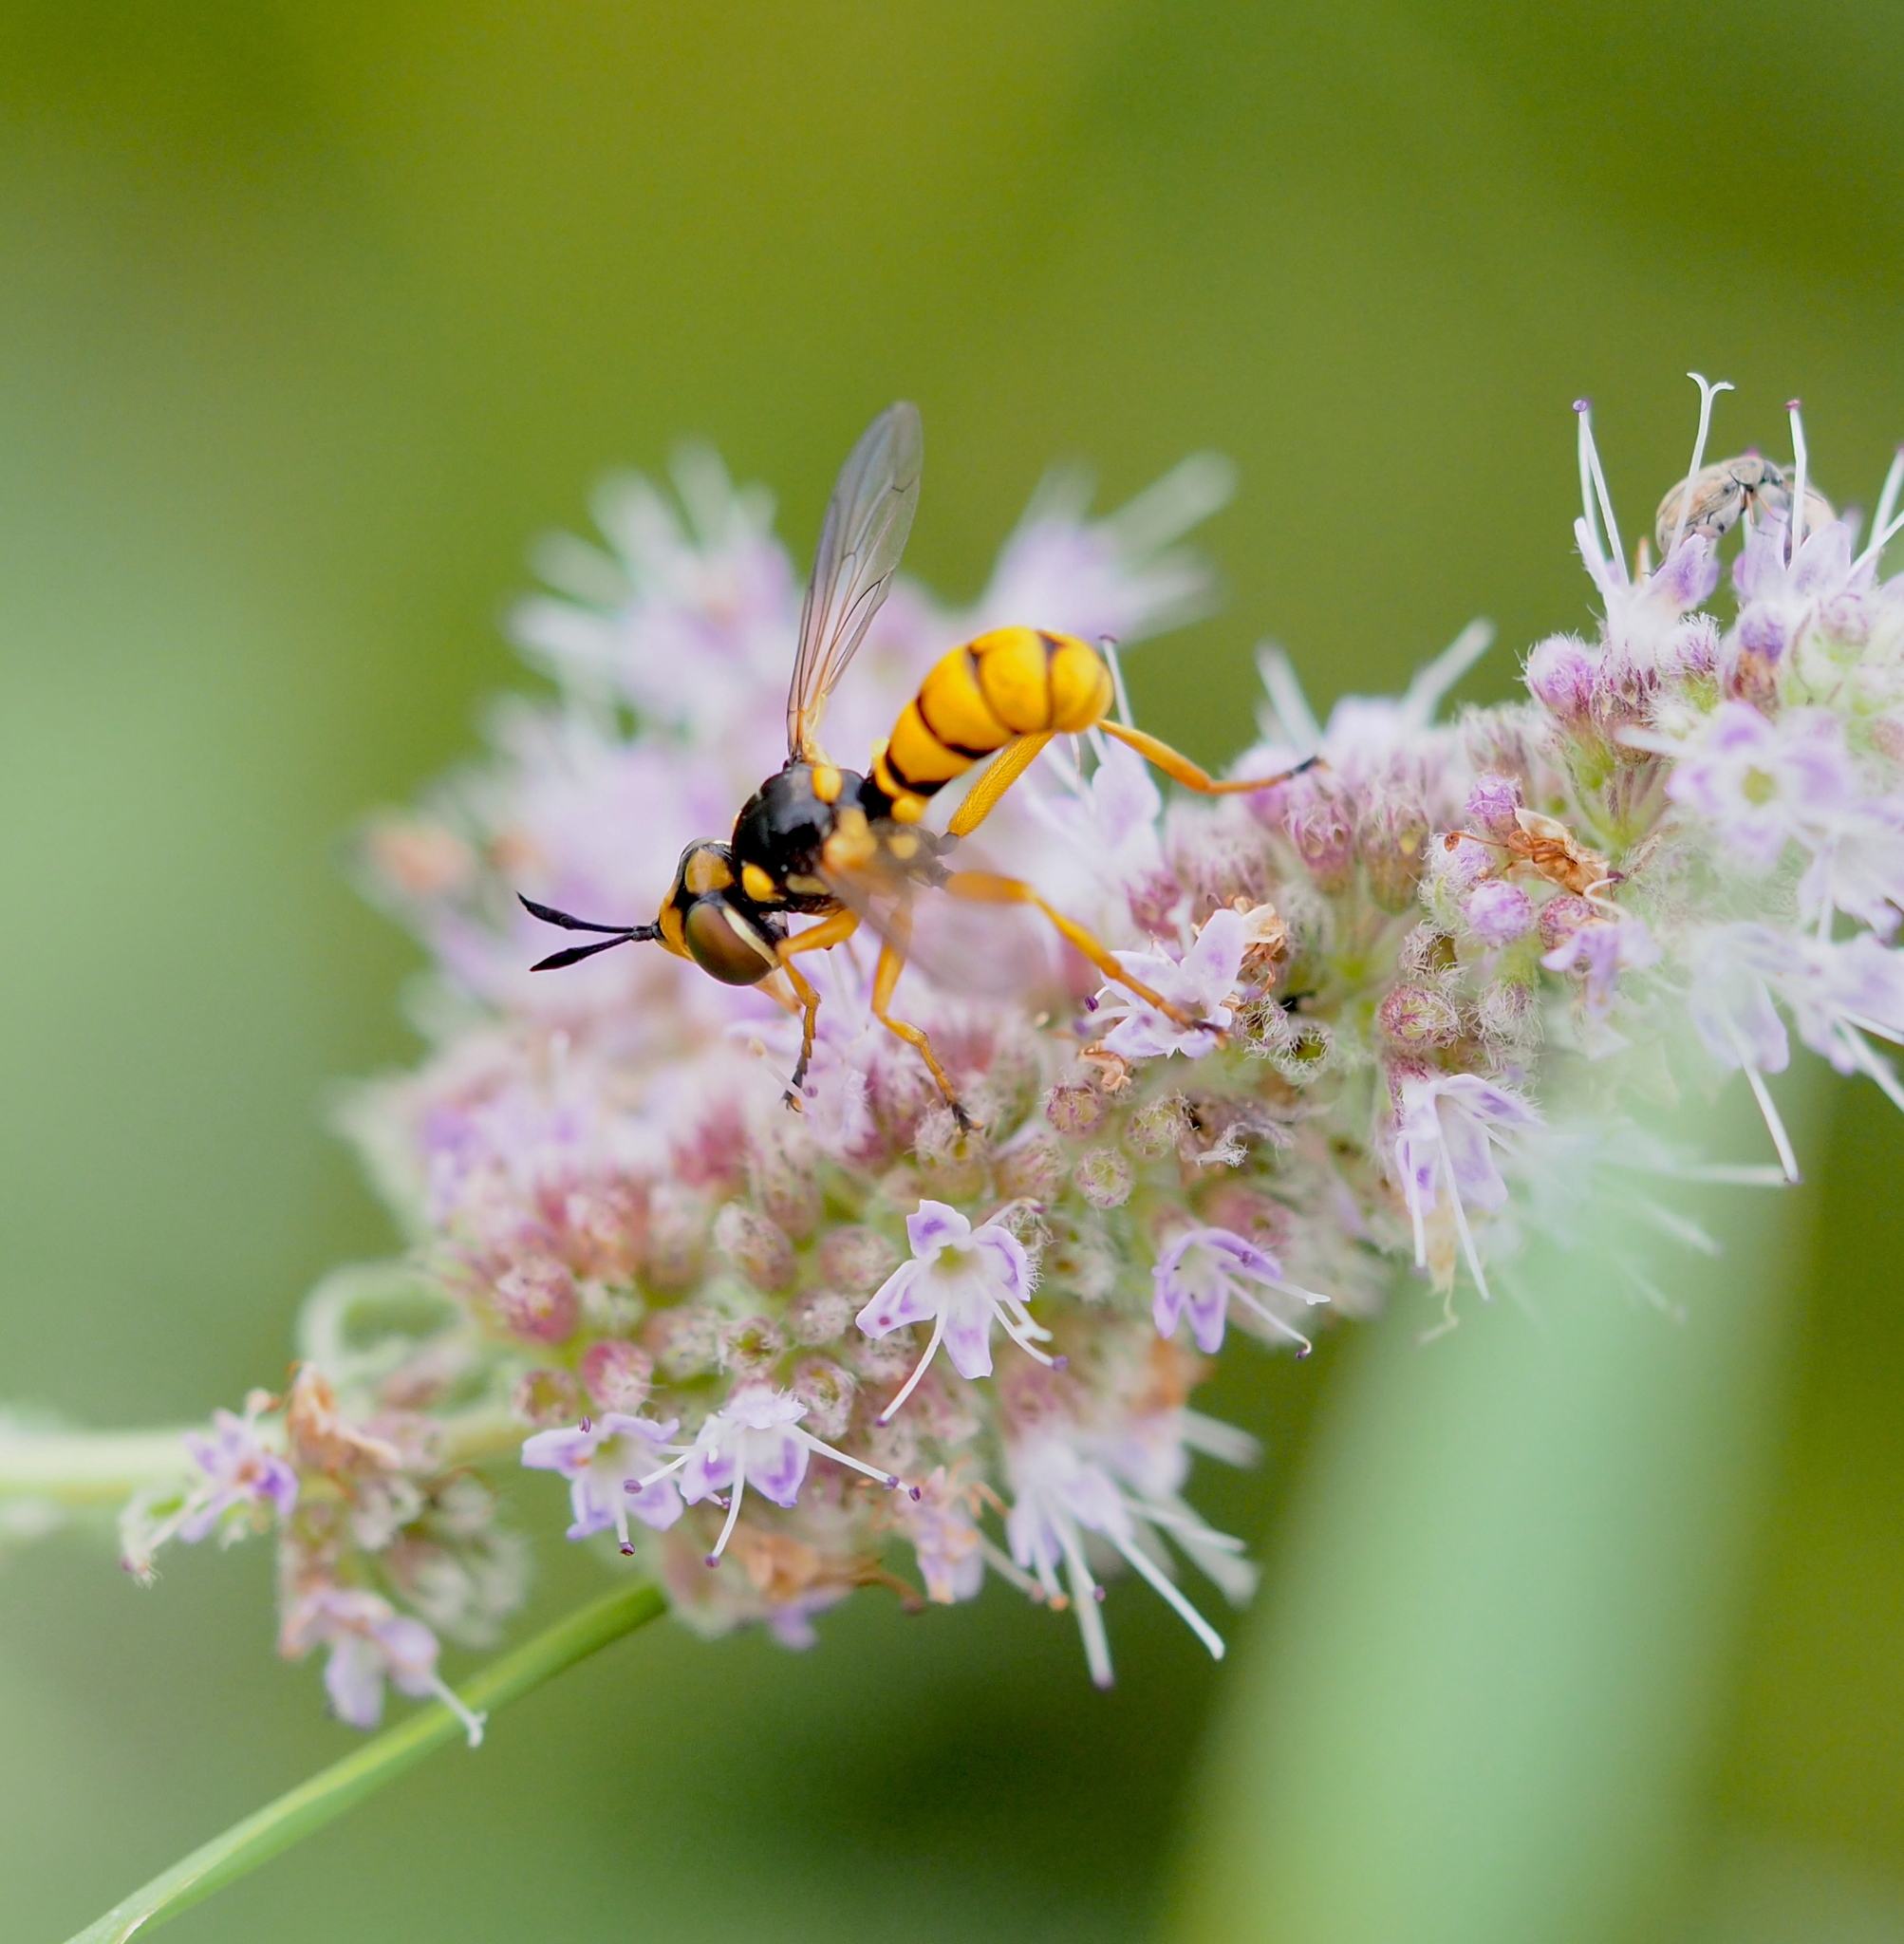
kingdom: Animalia
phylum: Arthropoda
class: Insecta
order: Diptera
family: Conopidae
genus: Conops
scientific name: Conops silaceus
